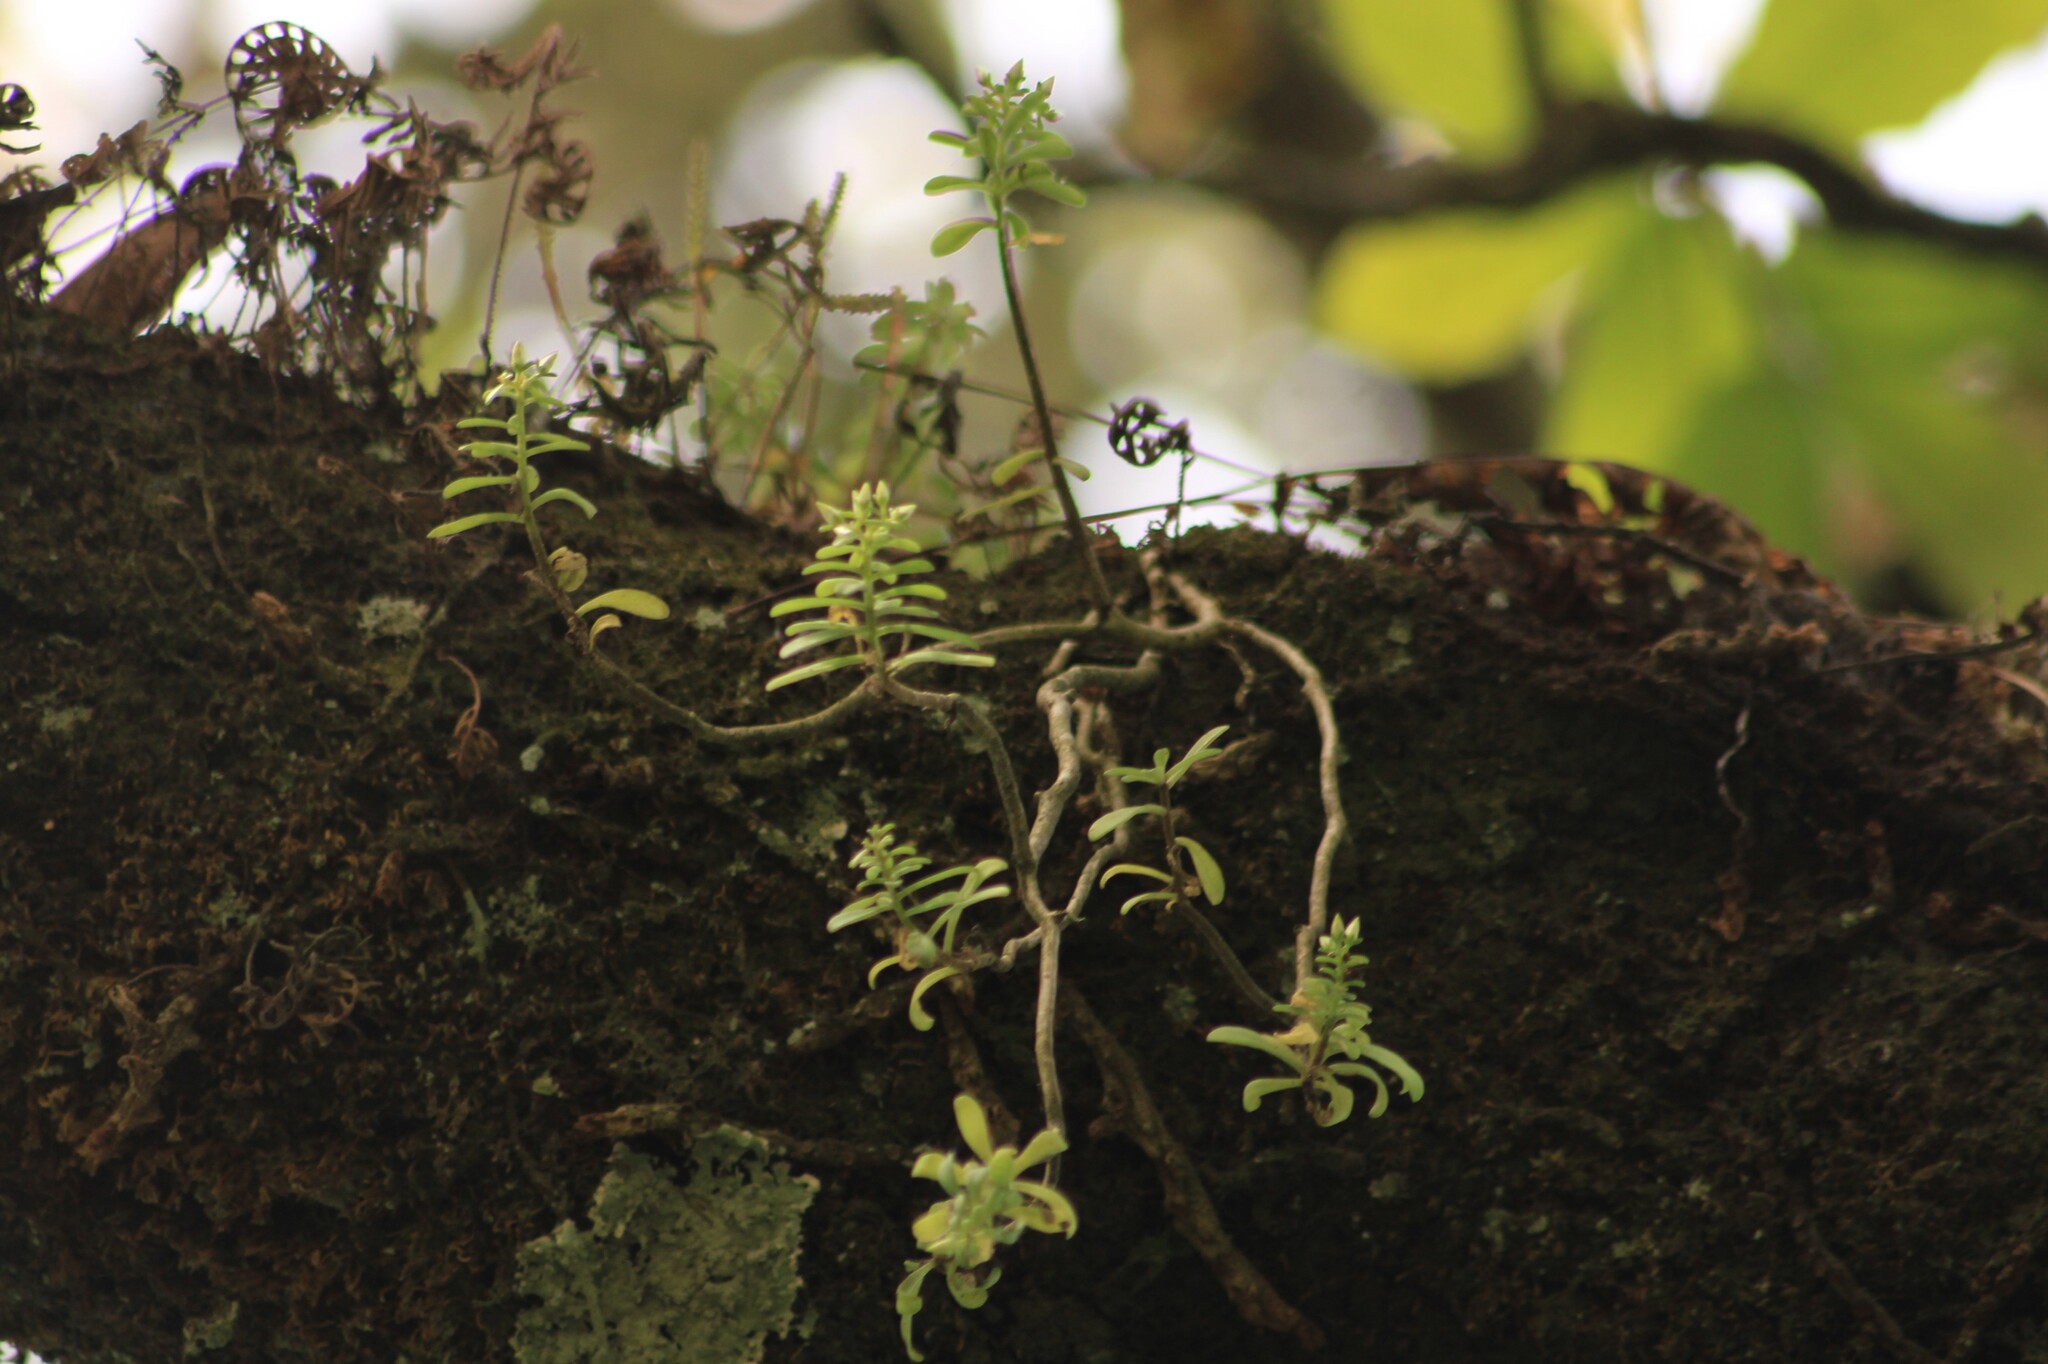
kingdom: Plantae
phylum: Tracheophyta
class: Magnoliopsida
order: Saxifragales
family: Crassulaceae
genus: Sedum
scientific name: Sedum tortuosum
